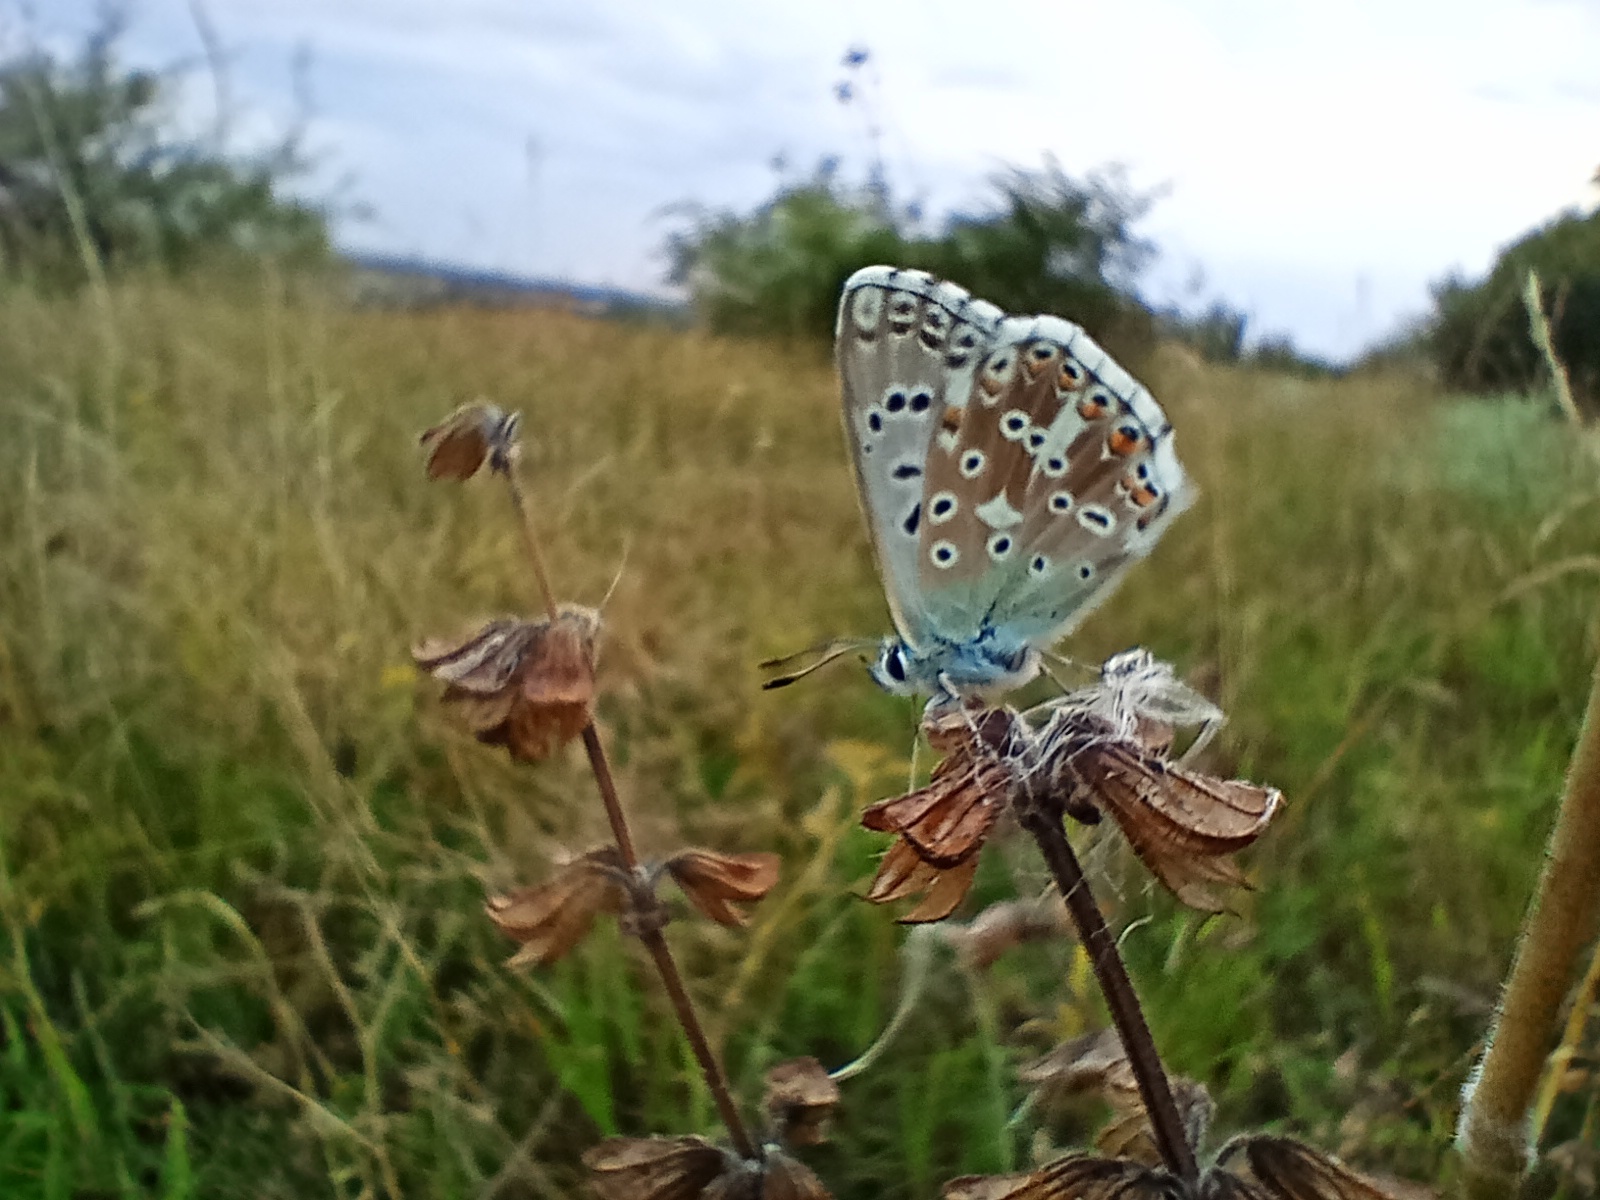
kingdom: Animalia
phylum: Arthropoda
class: Insecta
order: Lepidoptera
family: Lycaenidae
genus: Lysandra
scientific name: Lysandra coridon
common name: Chalkhill blue
